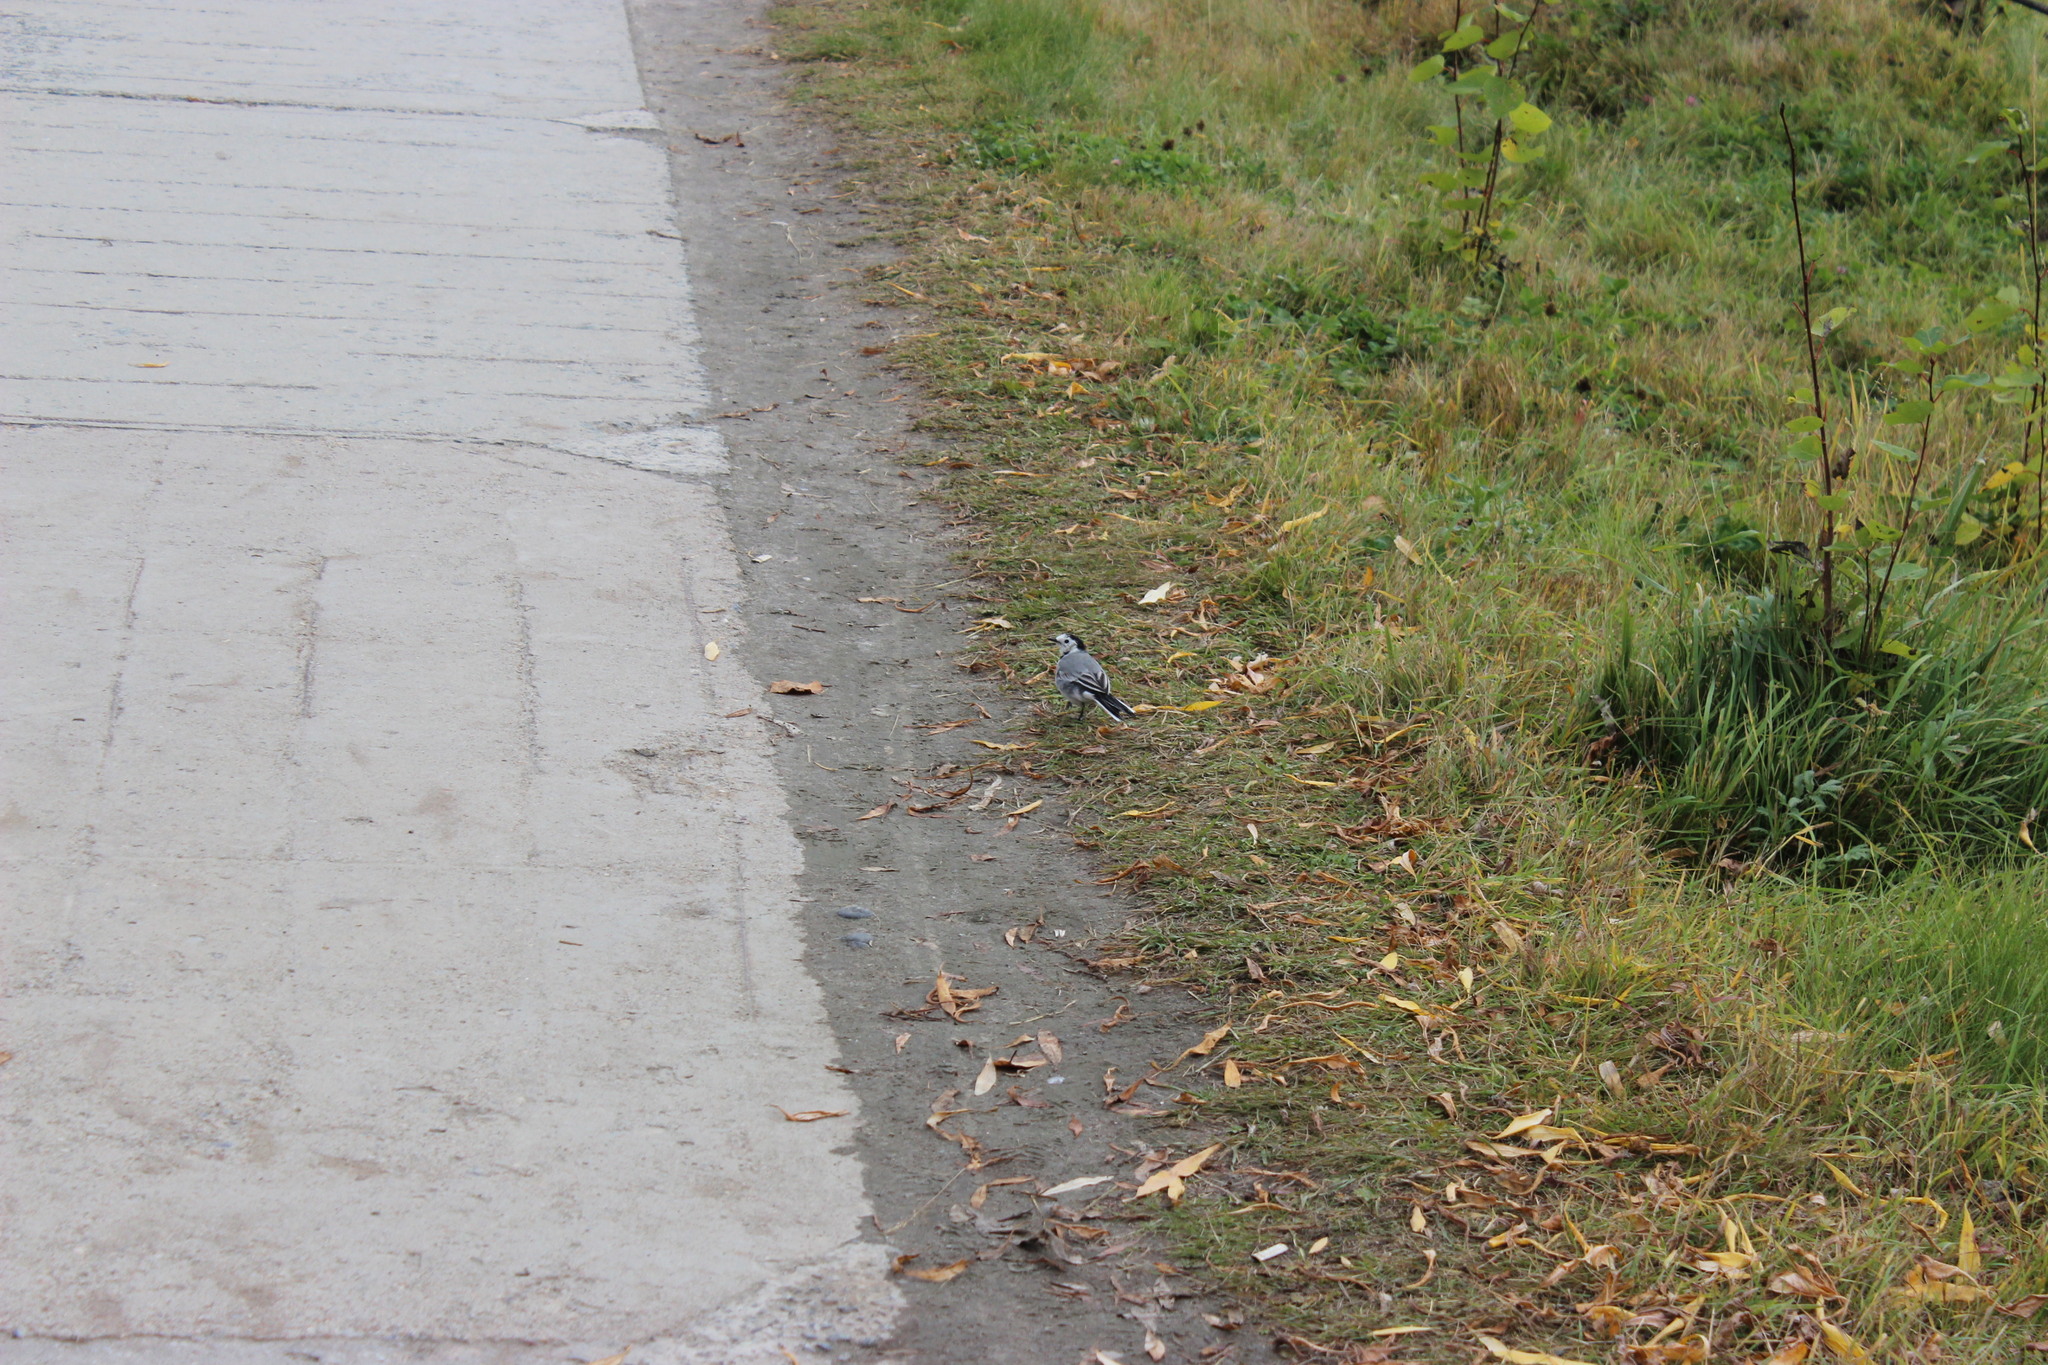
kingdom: Animalia
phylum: Chordata
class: Aves
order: Passeriformes
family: Motacillidae
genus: Motacilla
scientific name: Motacilla alba
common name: White wagtail
